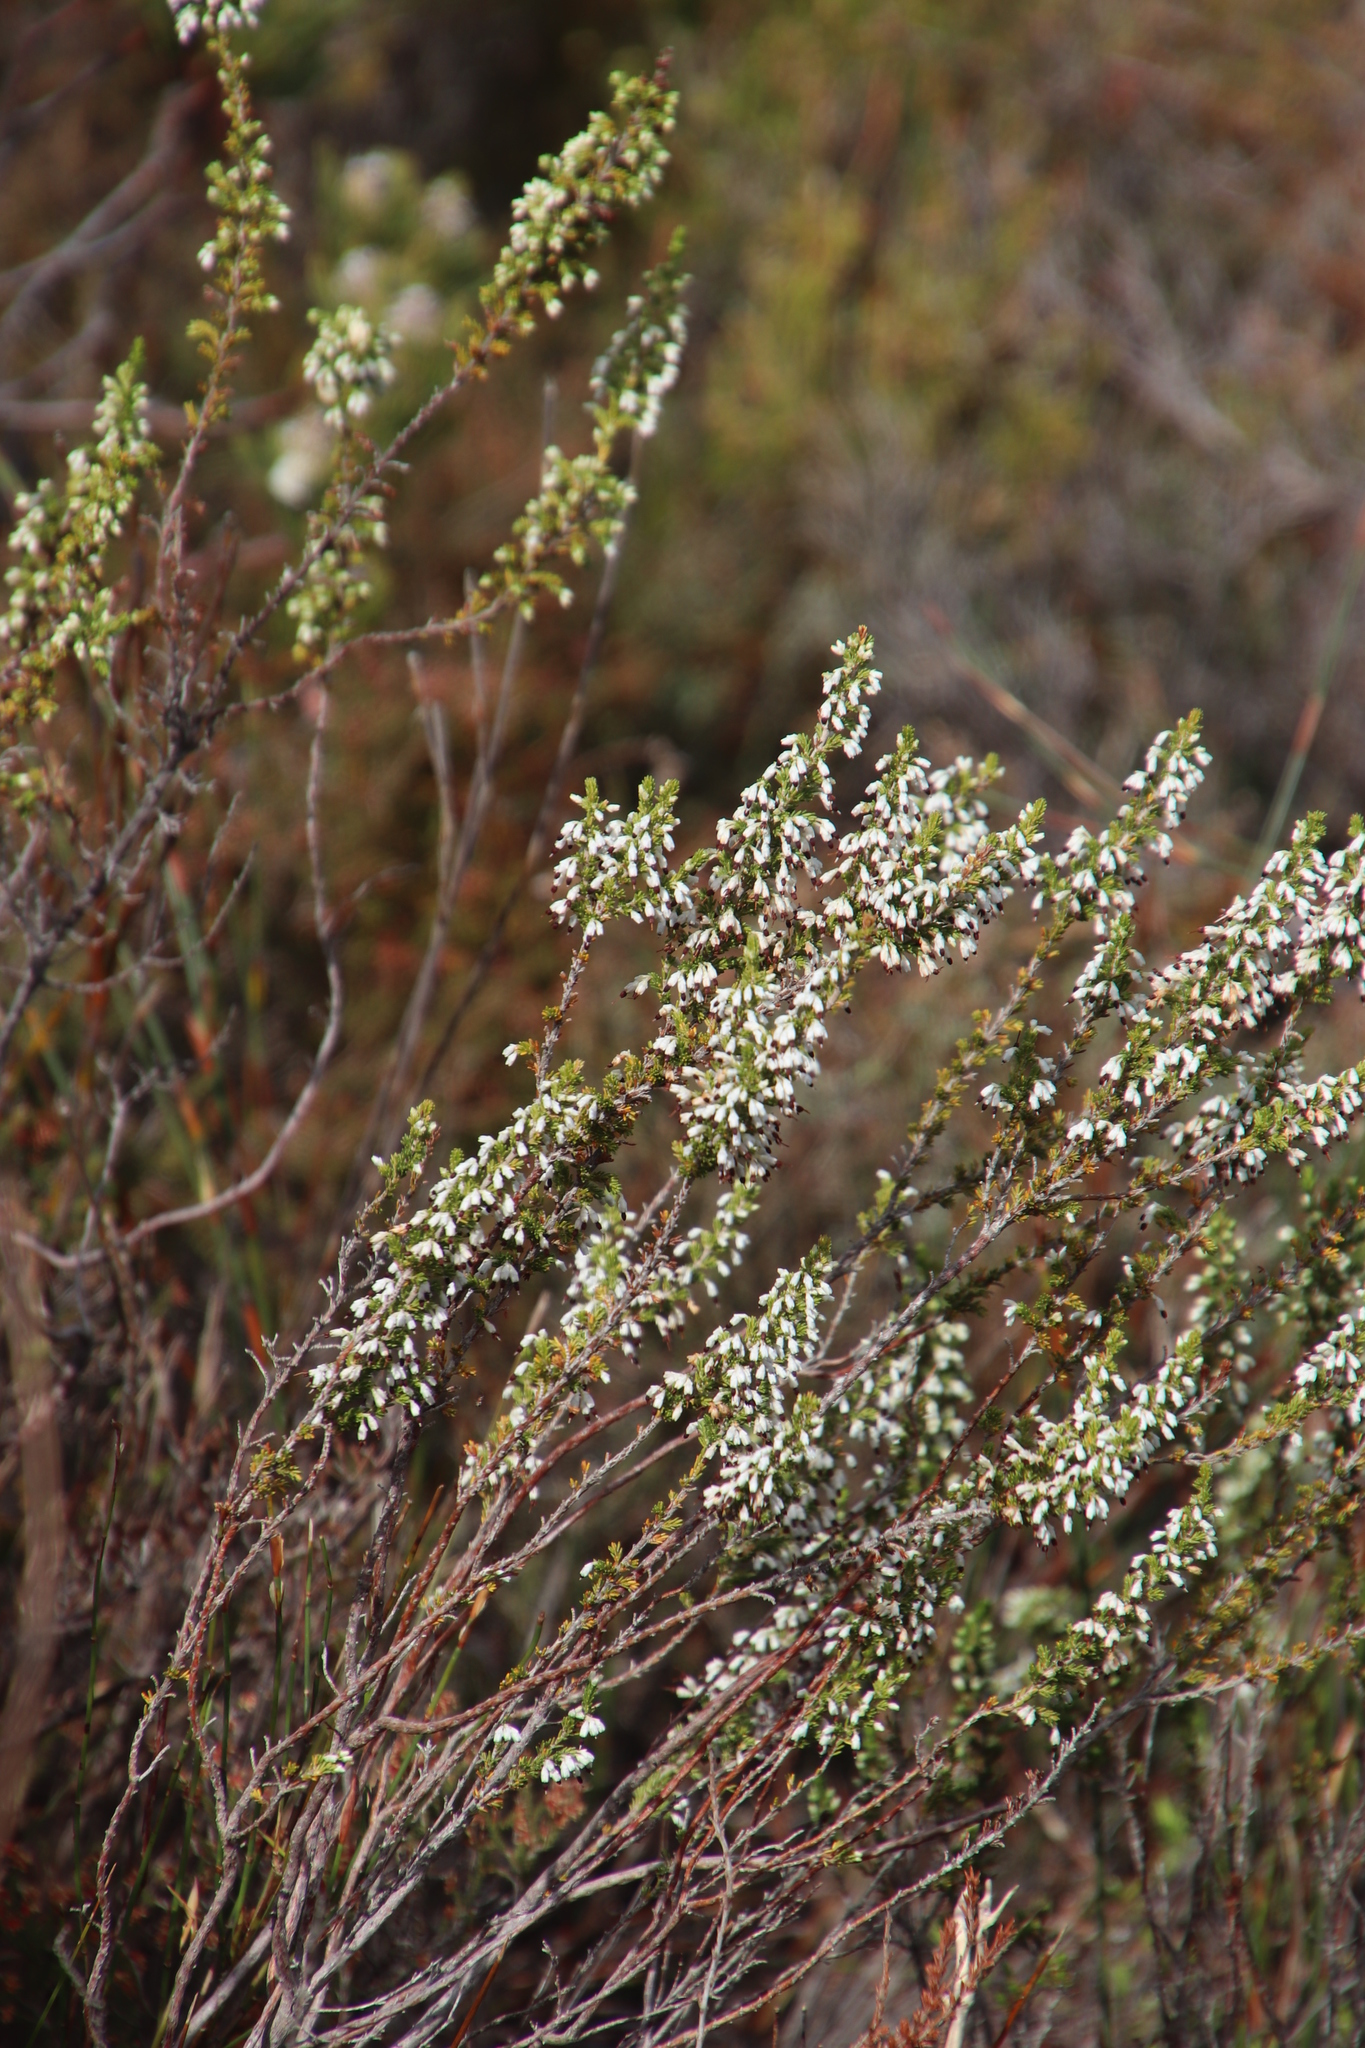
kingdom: Plantae
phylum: Tracheophyta
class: Magnoliopsida
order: Ericales
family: Ericaceae
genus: Erica
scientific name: Erica imbricata
